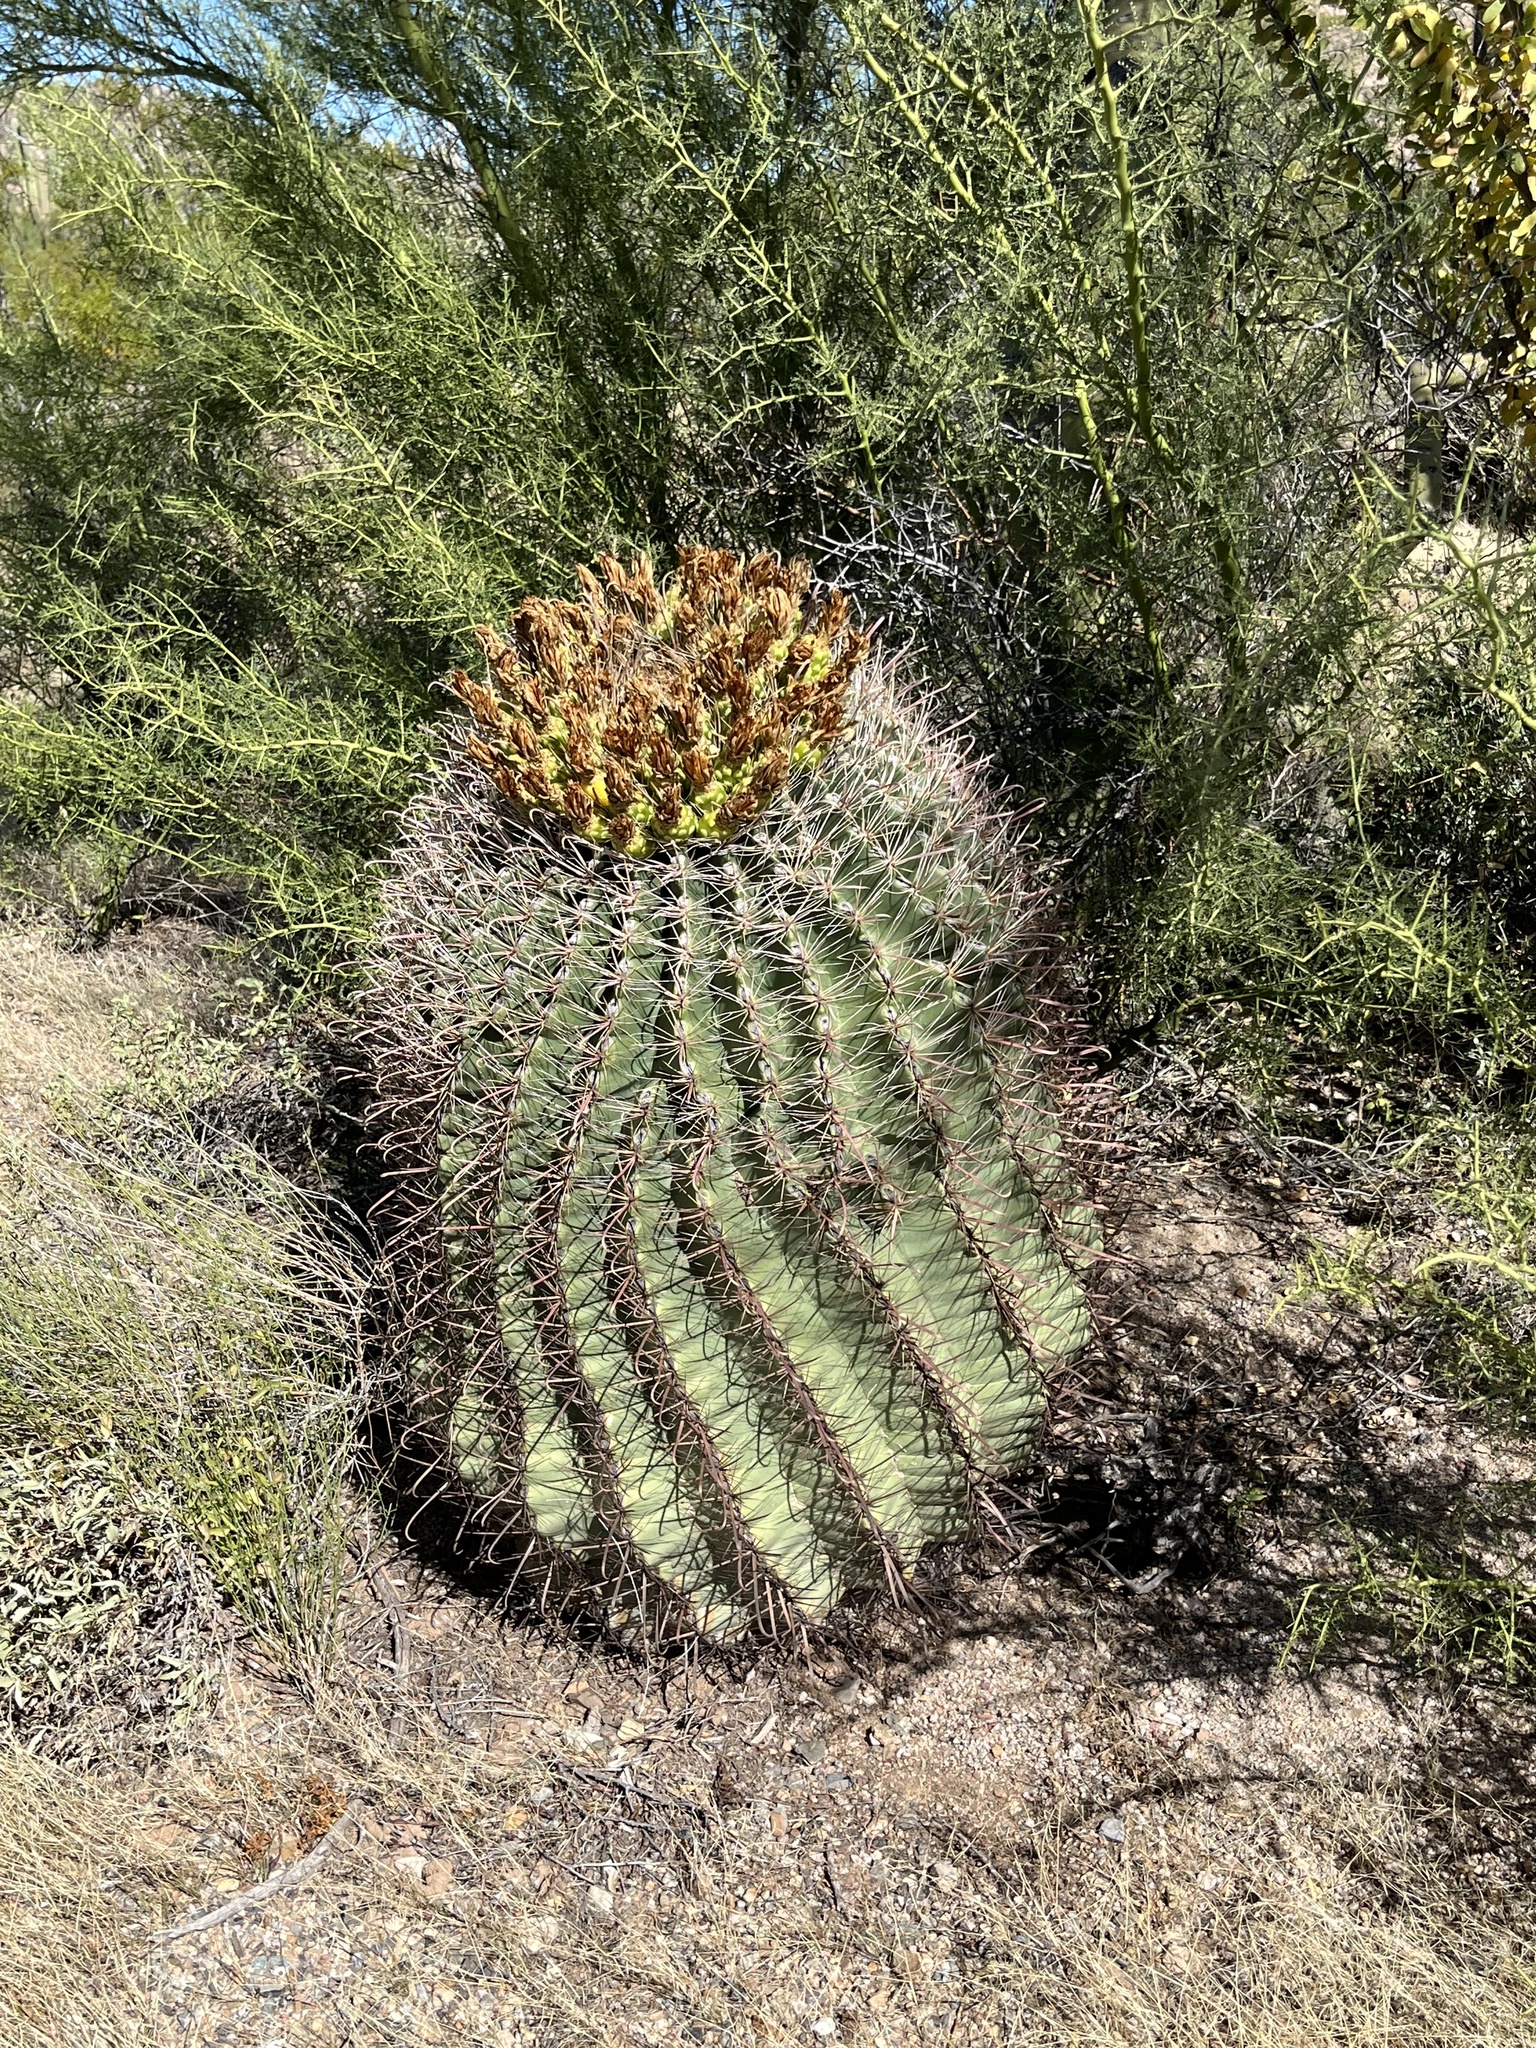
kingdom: Plantae
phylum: Tracheophyta
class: Magnoliopsida
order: Caryophyllales
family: Cactaceae
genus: Ferocactus
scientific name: Ferocactus wislizeni
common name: Candy barrel cactus
